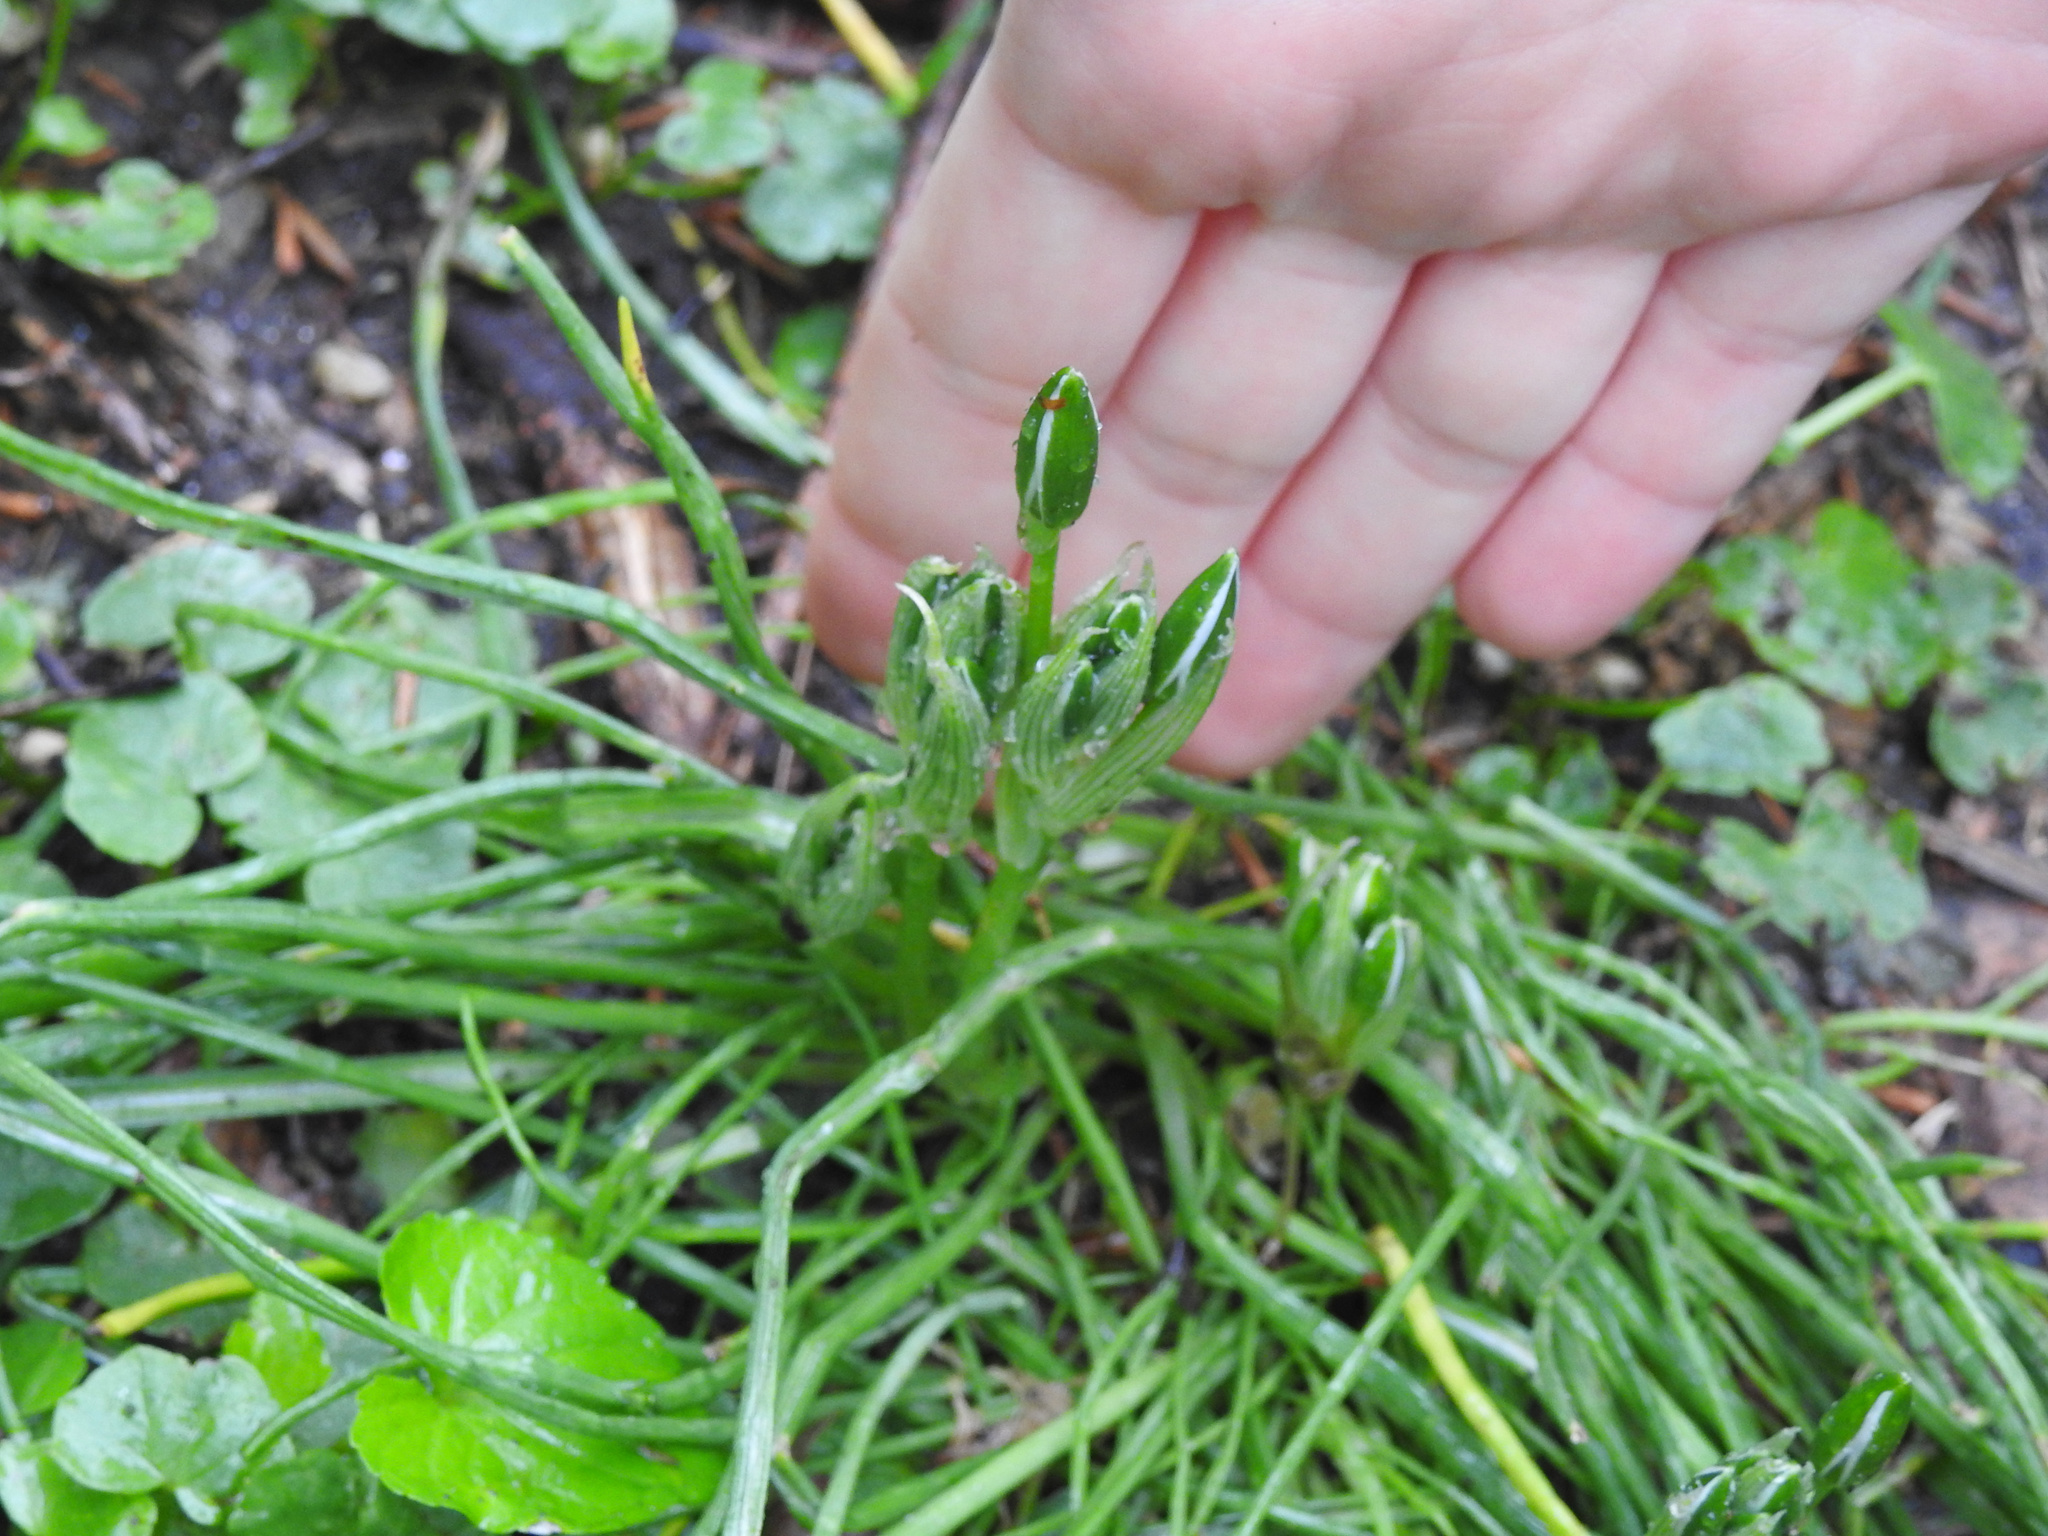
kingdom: Plantae
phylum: Tracheophyta
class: Liliopsida
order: Asparagales
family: Asparagaceae
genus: Ornithogalum
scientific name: Ornithogalum umbellatum
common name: Garden star-of-bethlehem
